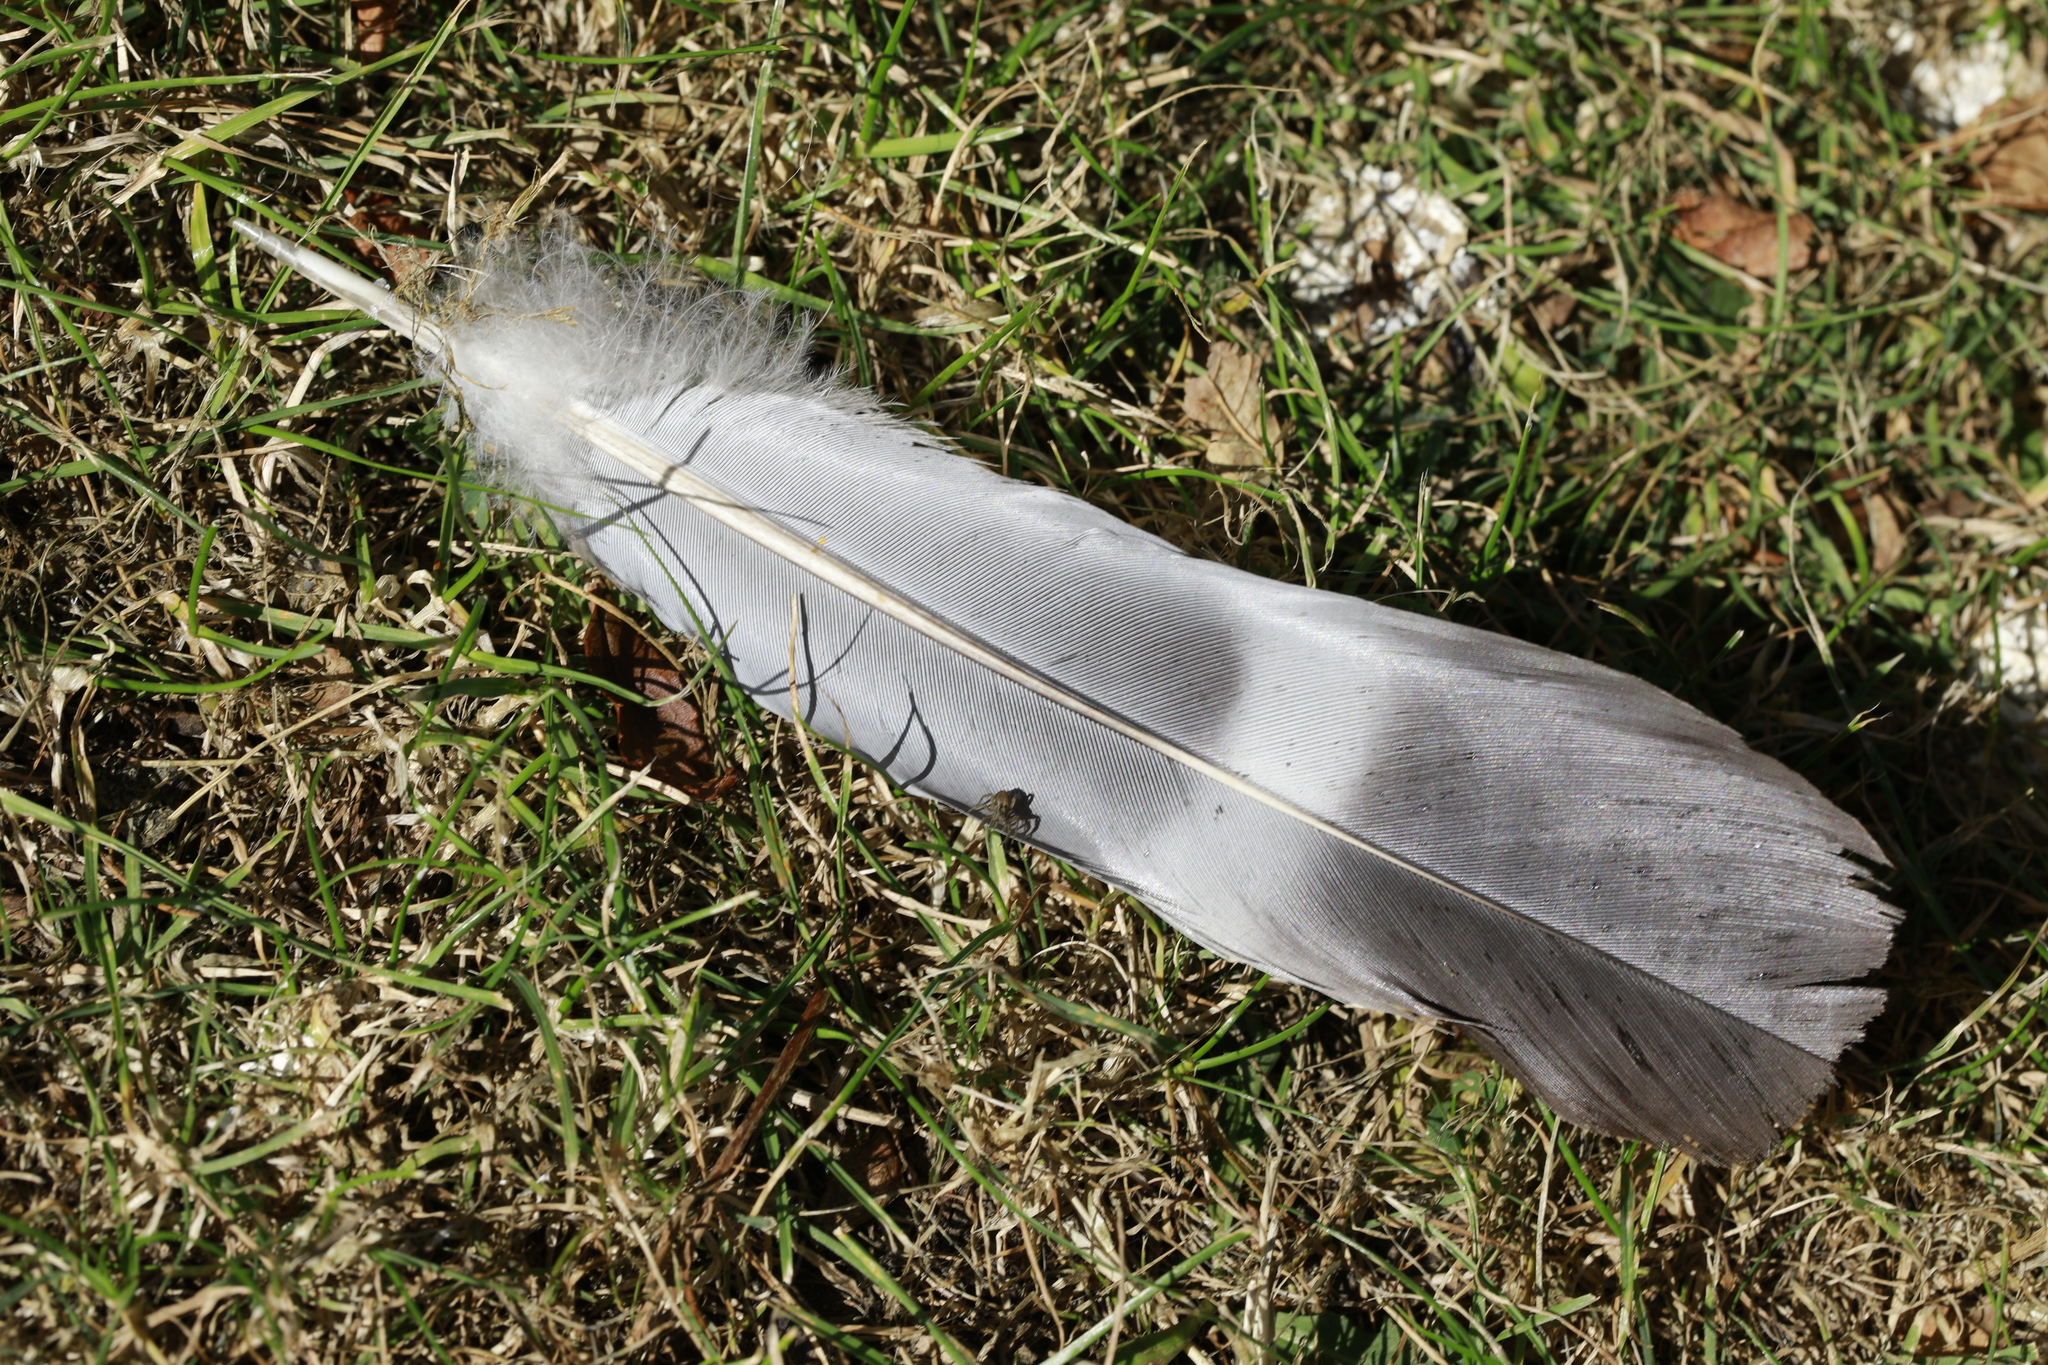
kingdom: Animalia
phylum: Chordata
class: Aves
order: Columbiformes
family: Columbidae
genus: Columba
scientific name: Columba palumbus
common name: Common wood pigeon
